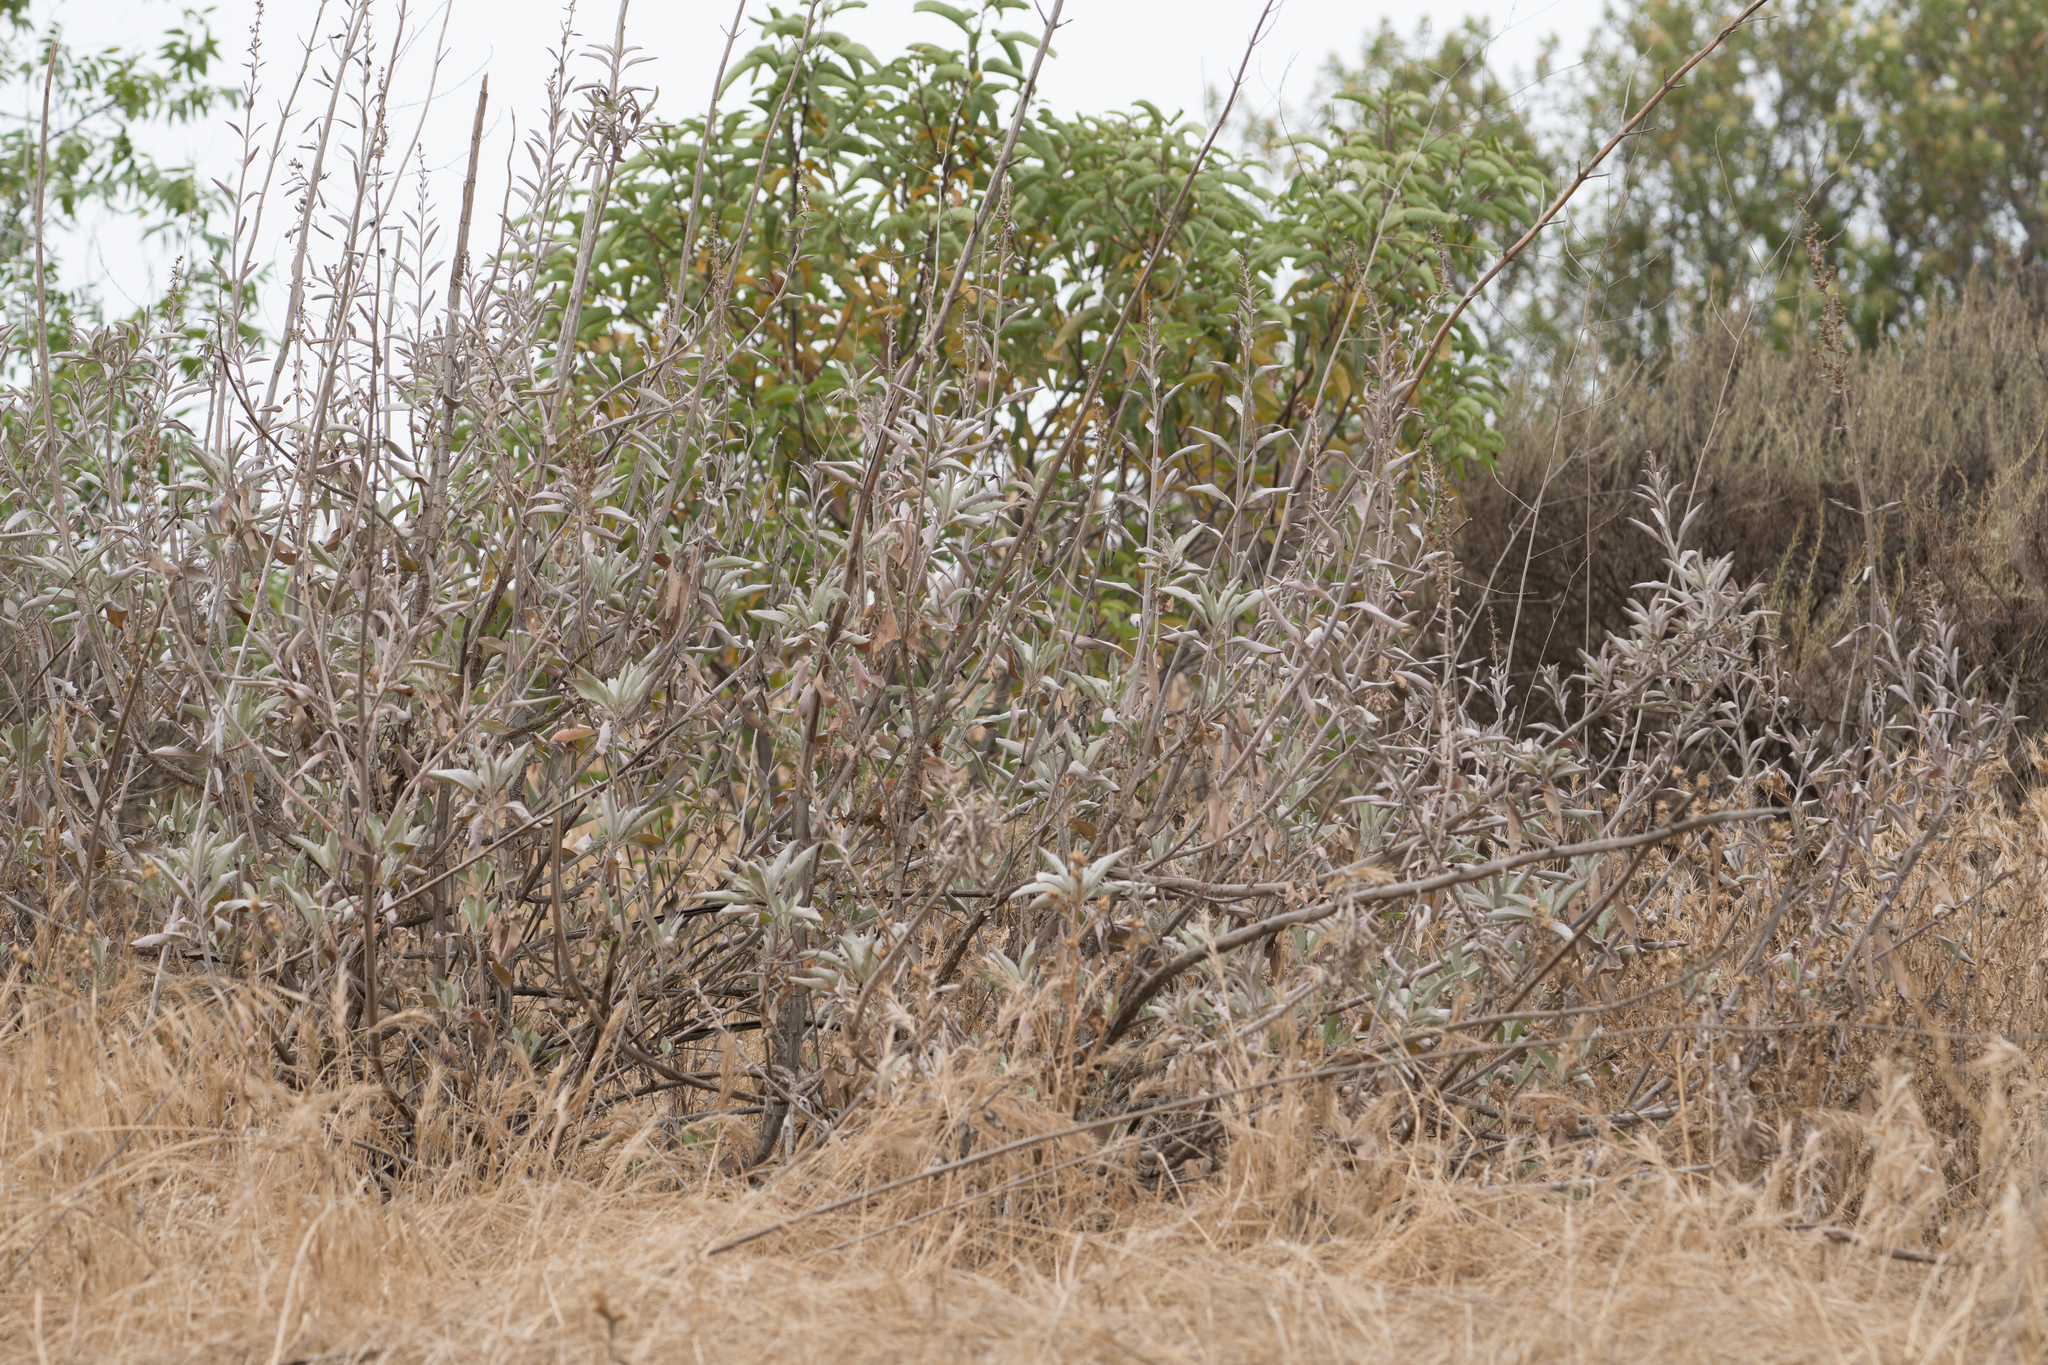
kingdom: Plantae
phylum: Tracheophyta
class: Magnoliopsida
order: Lamiales
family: Lamiaceae
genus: Salvia
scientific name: Salvia apiana
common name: White sage
